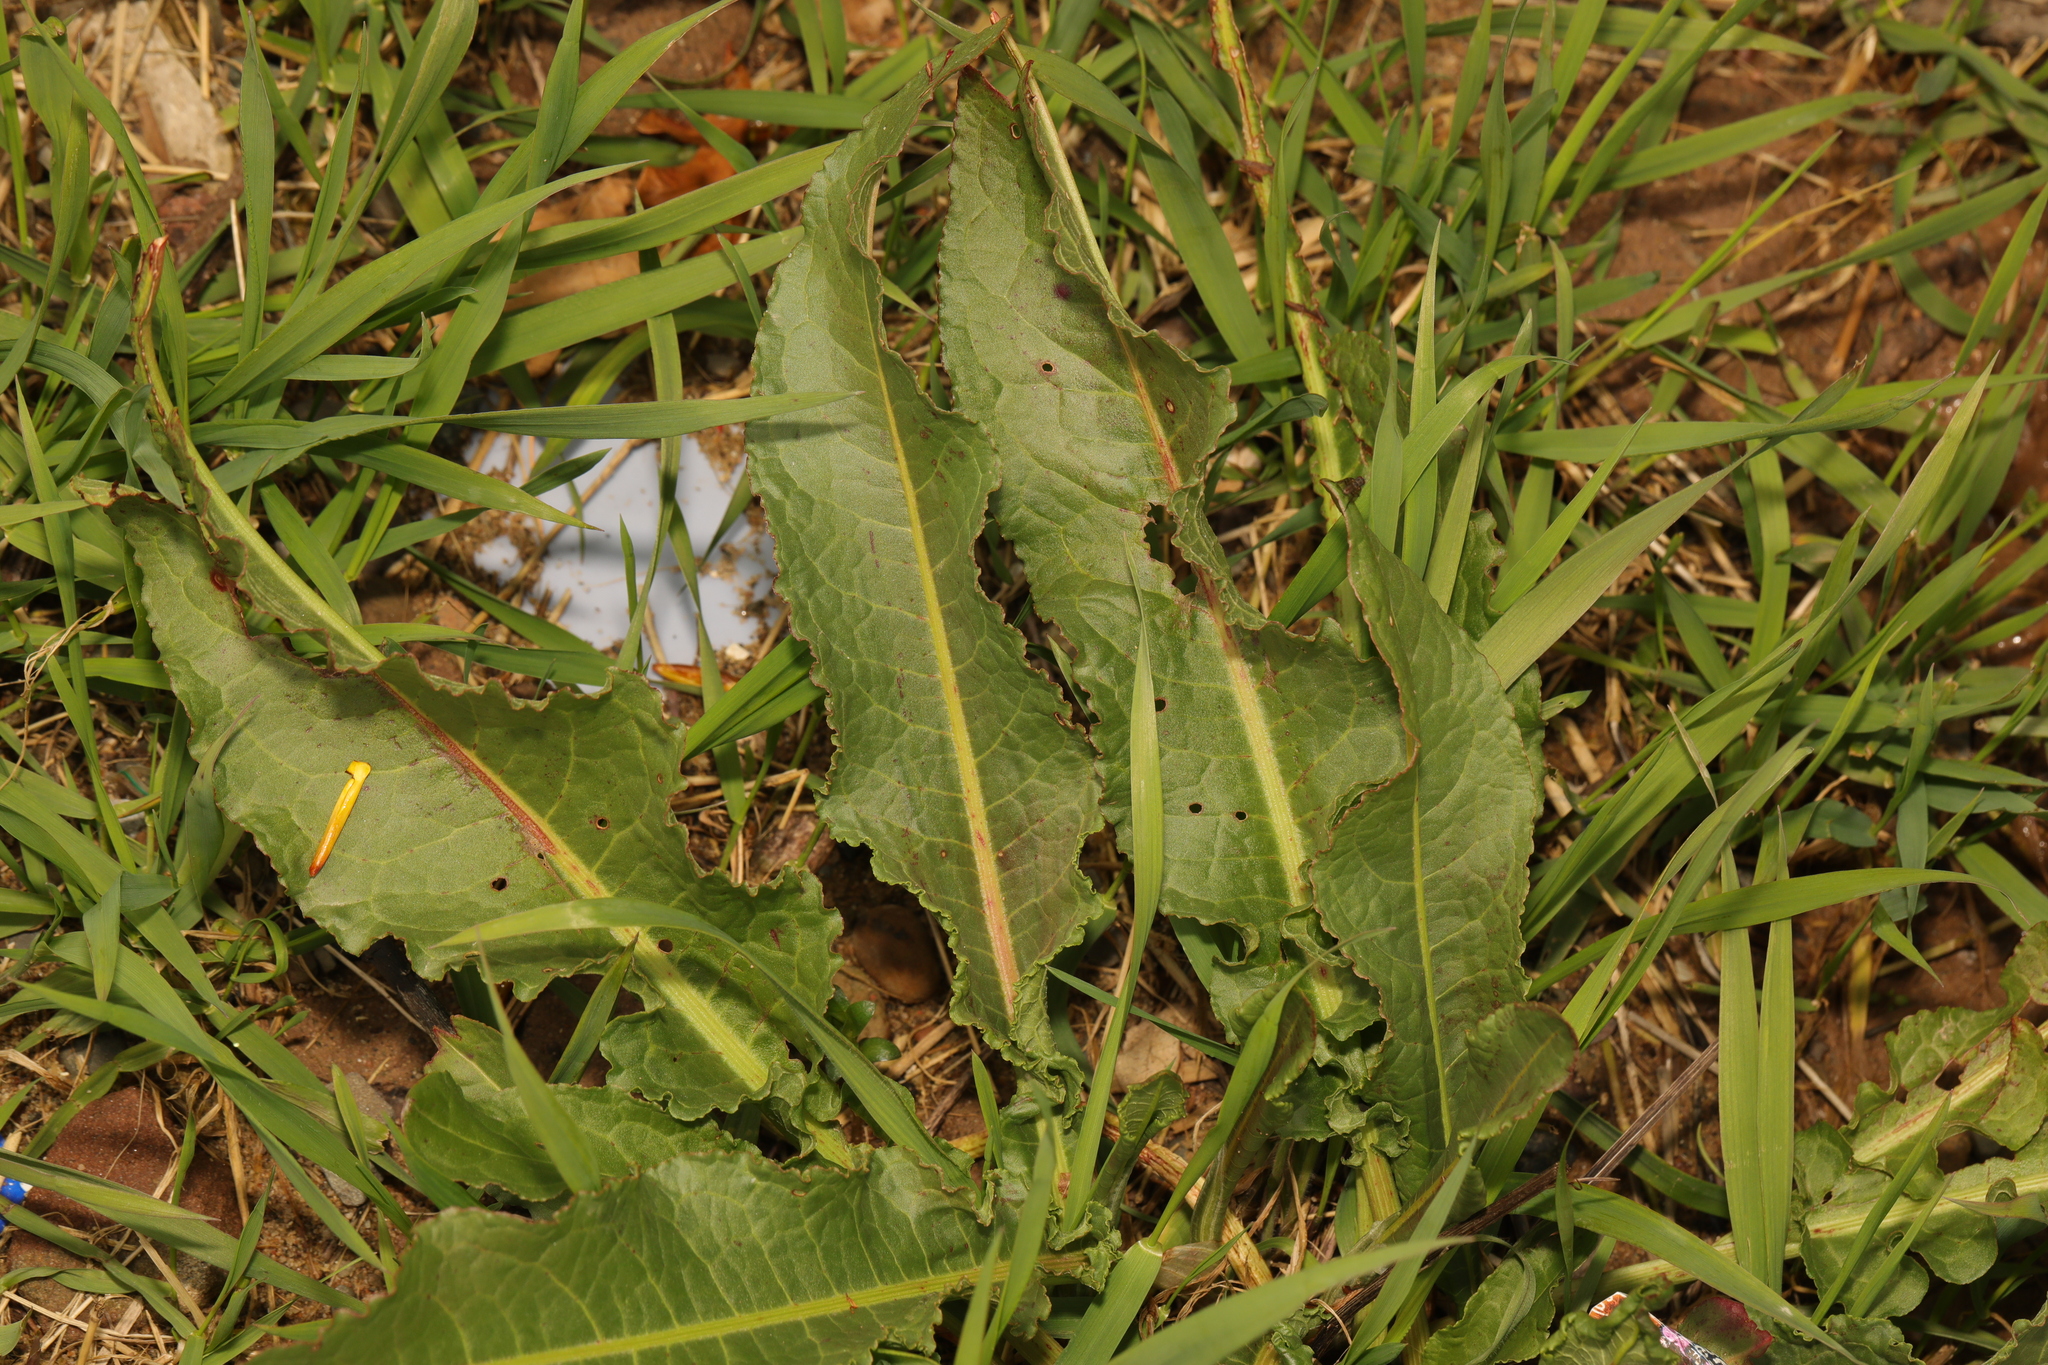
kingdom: Plantae
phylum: Tracheophyta
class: Magnoliopsida
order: Caryophyllales
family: Polygonaceae
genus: Rumex
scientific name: Rumex crispus
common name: Curled dock
